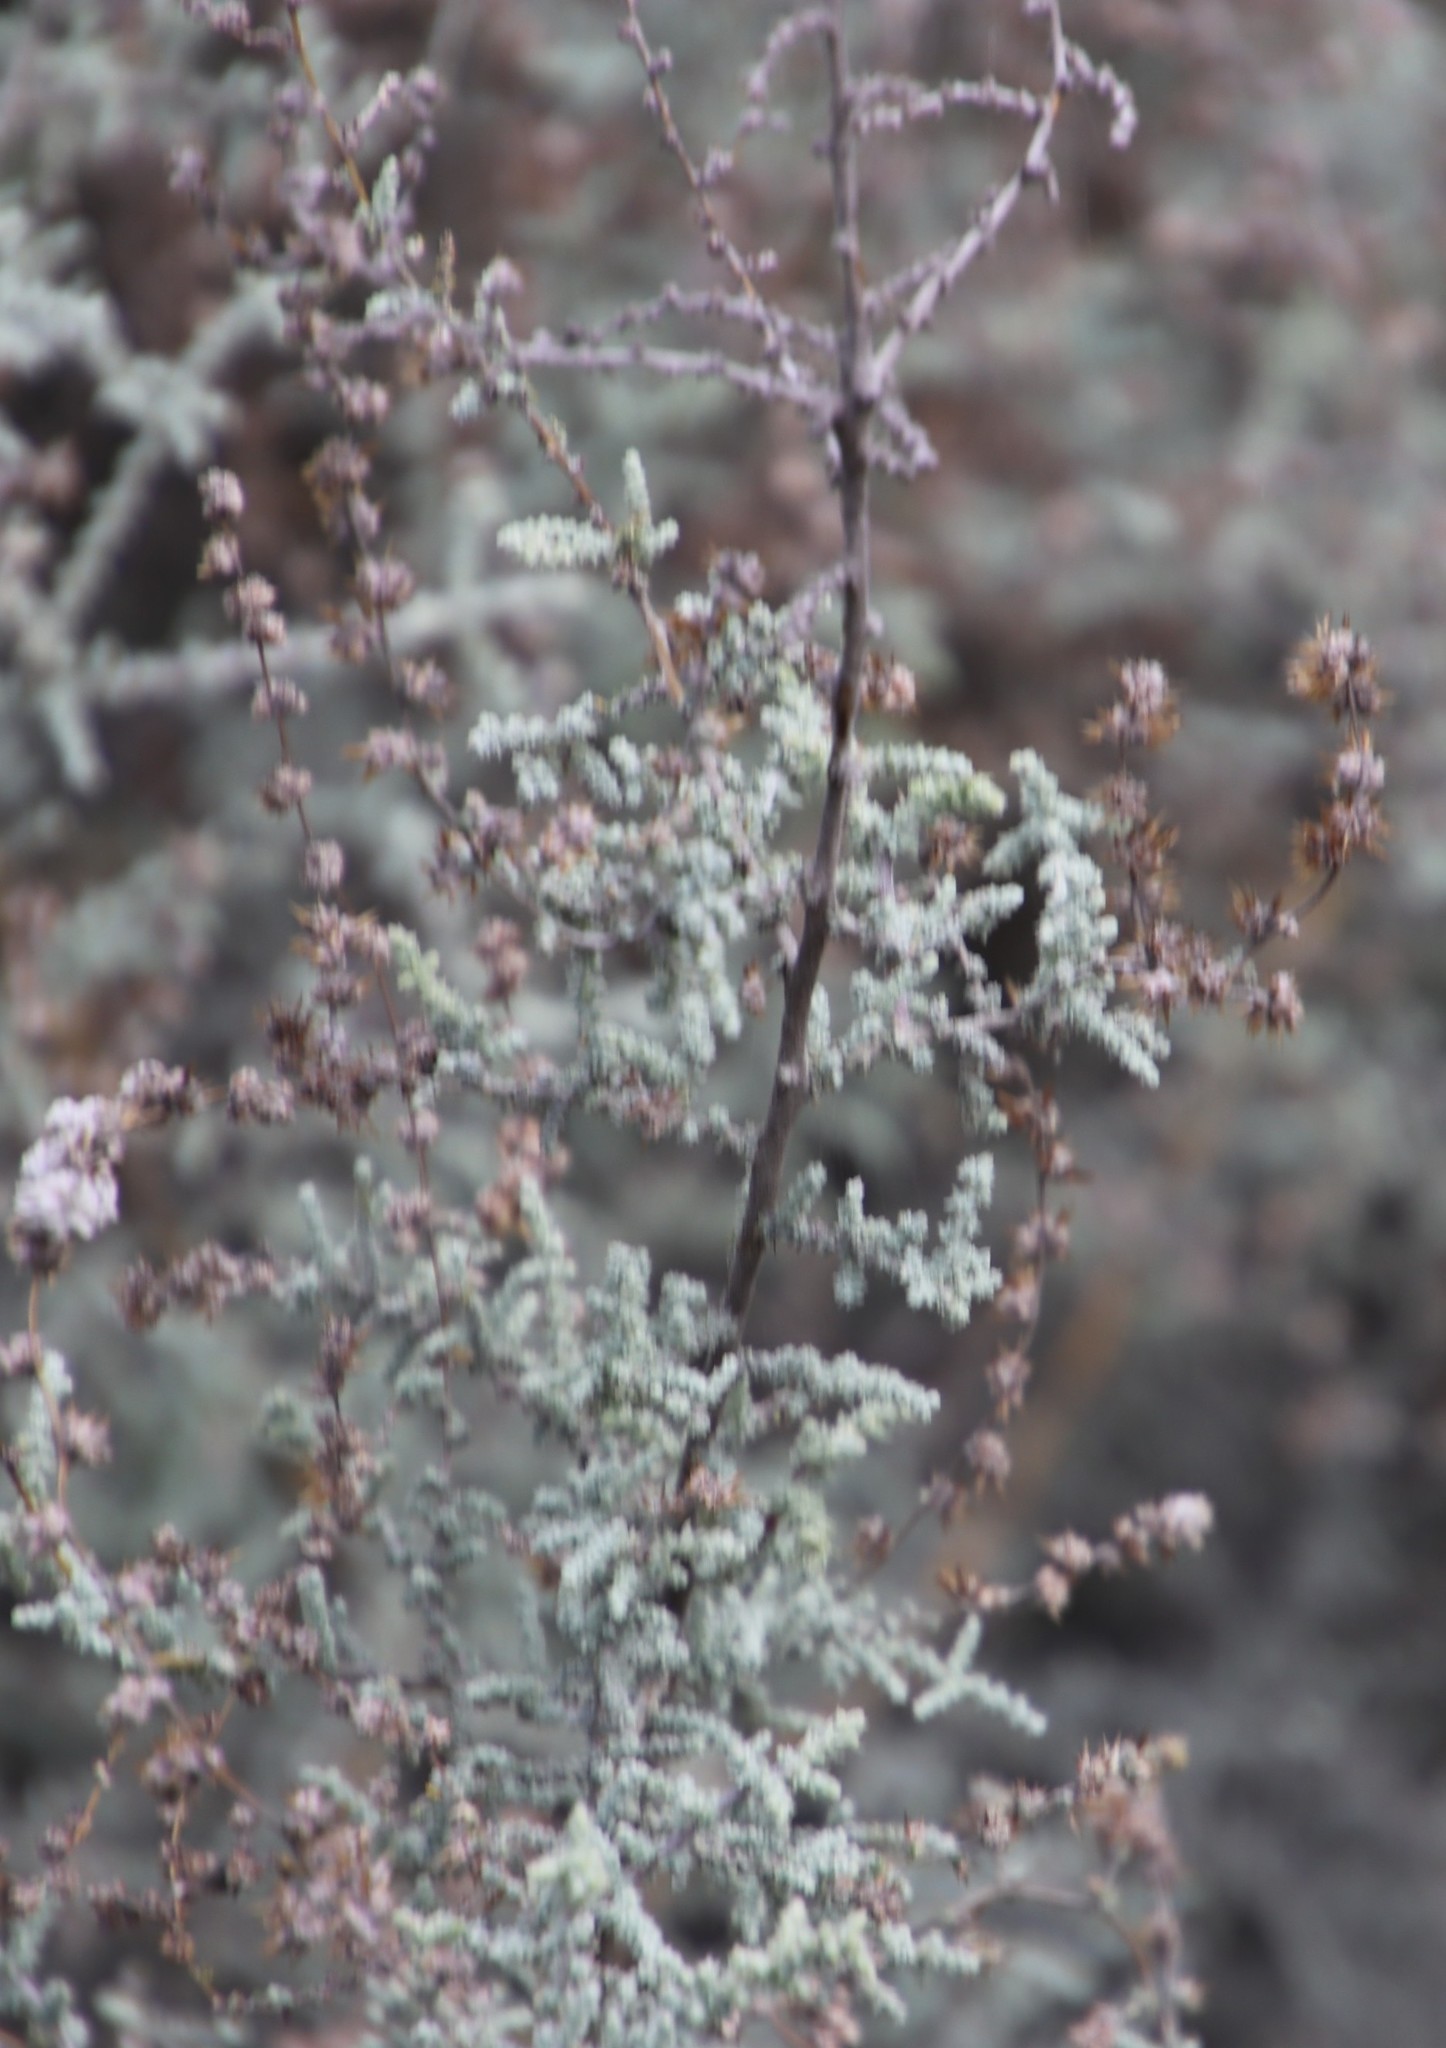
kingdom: Plantae
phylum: Tracheophyta
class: Magnoliopsida
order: Asterales
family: Asteraceae
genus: Seriphium
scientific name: Seriphium plumosum
